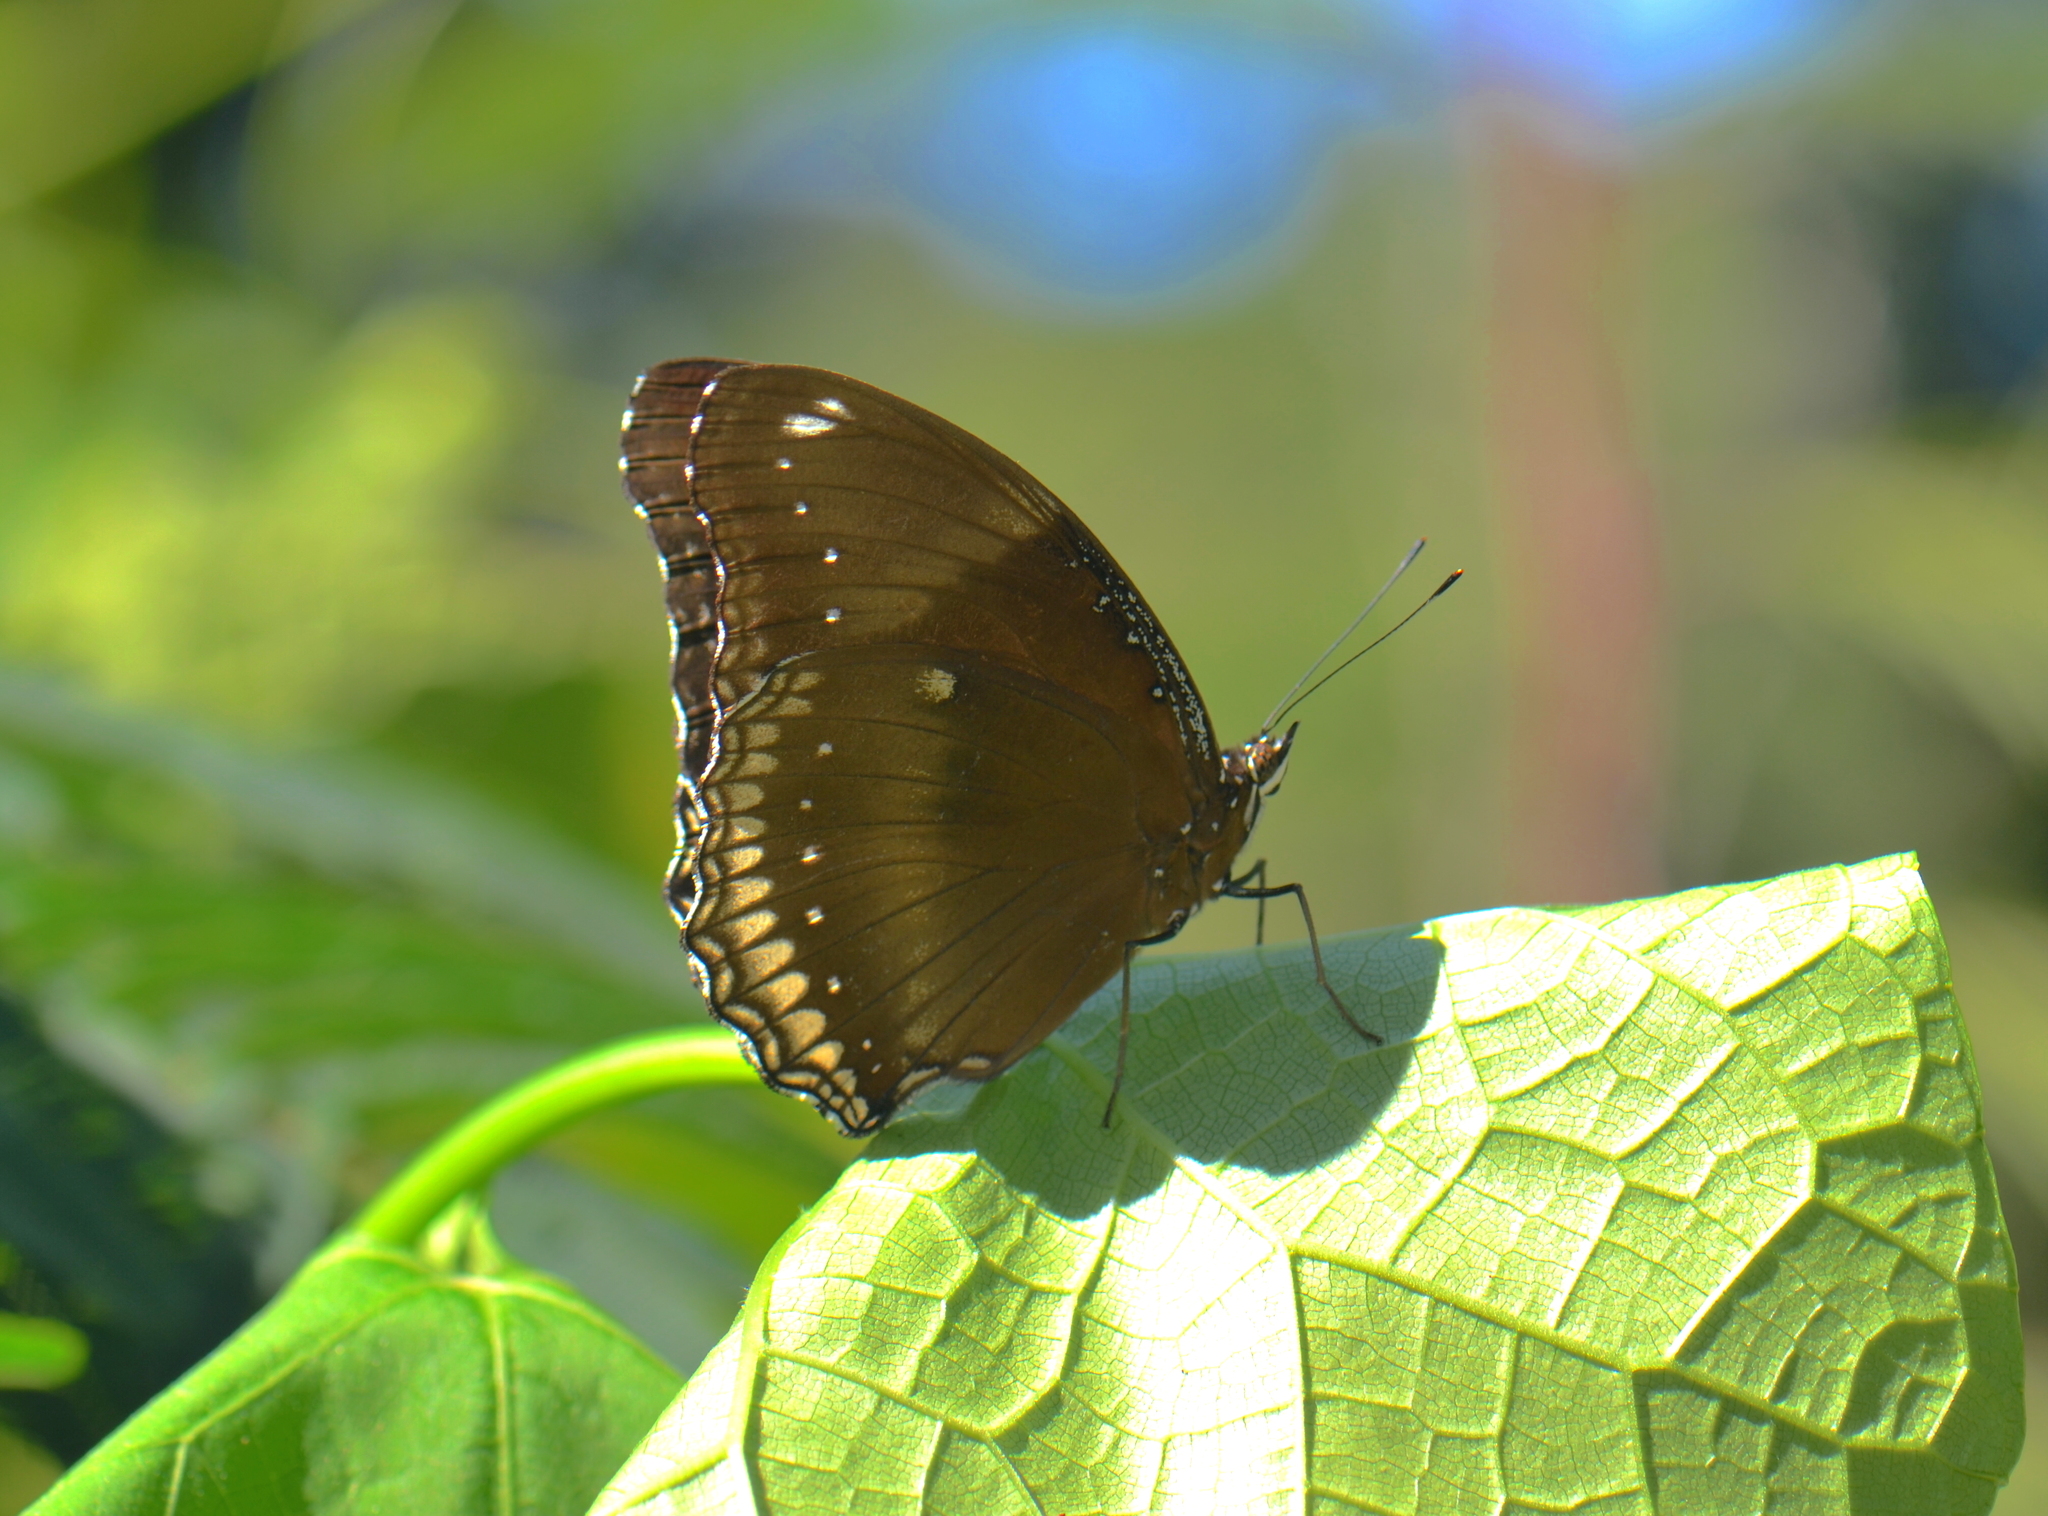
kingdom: Animalia
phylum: Arthropoda
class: Insecta
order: Lepidoptera
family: Nymphalidae
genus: Hypolimnas
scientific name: Hypolimnas bolina
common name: Great eggfly
